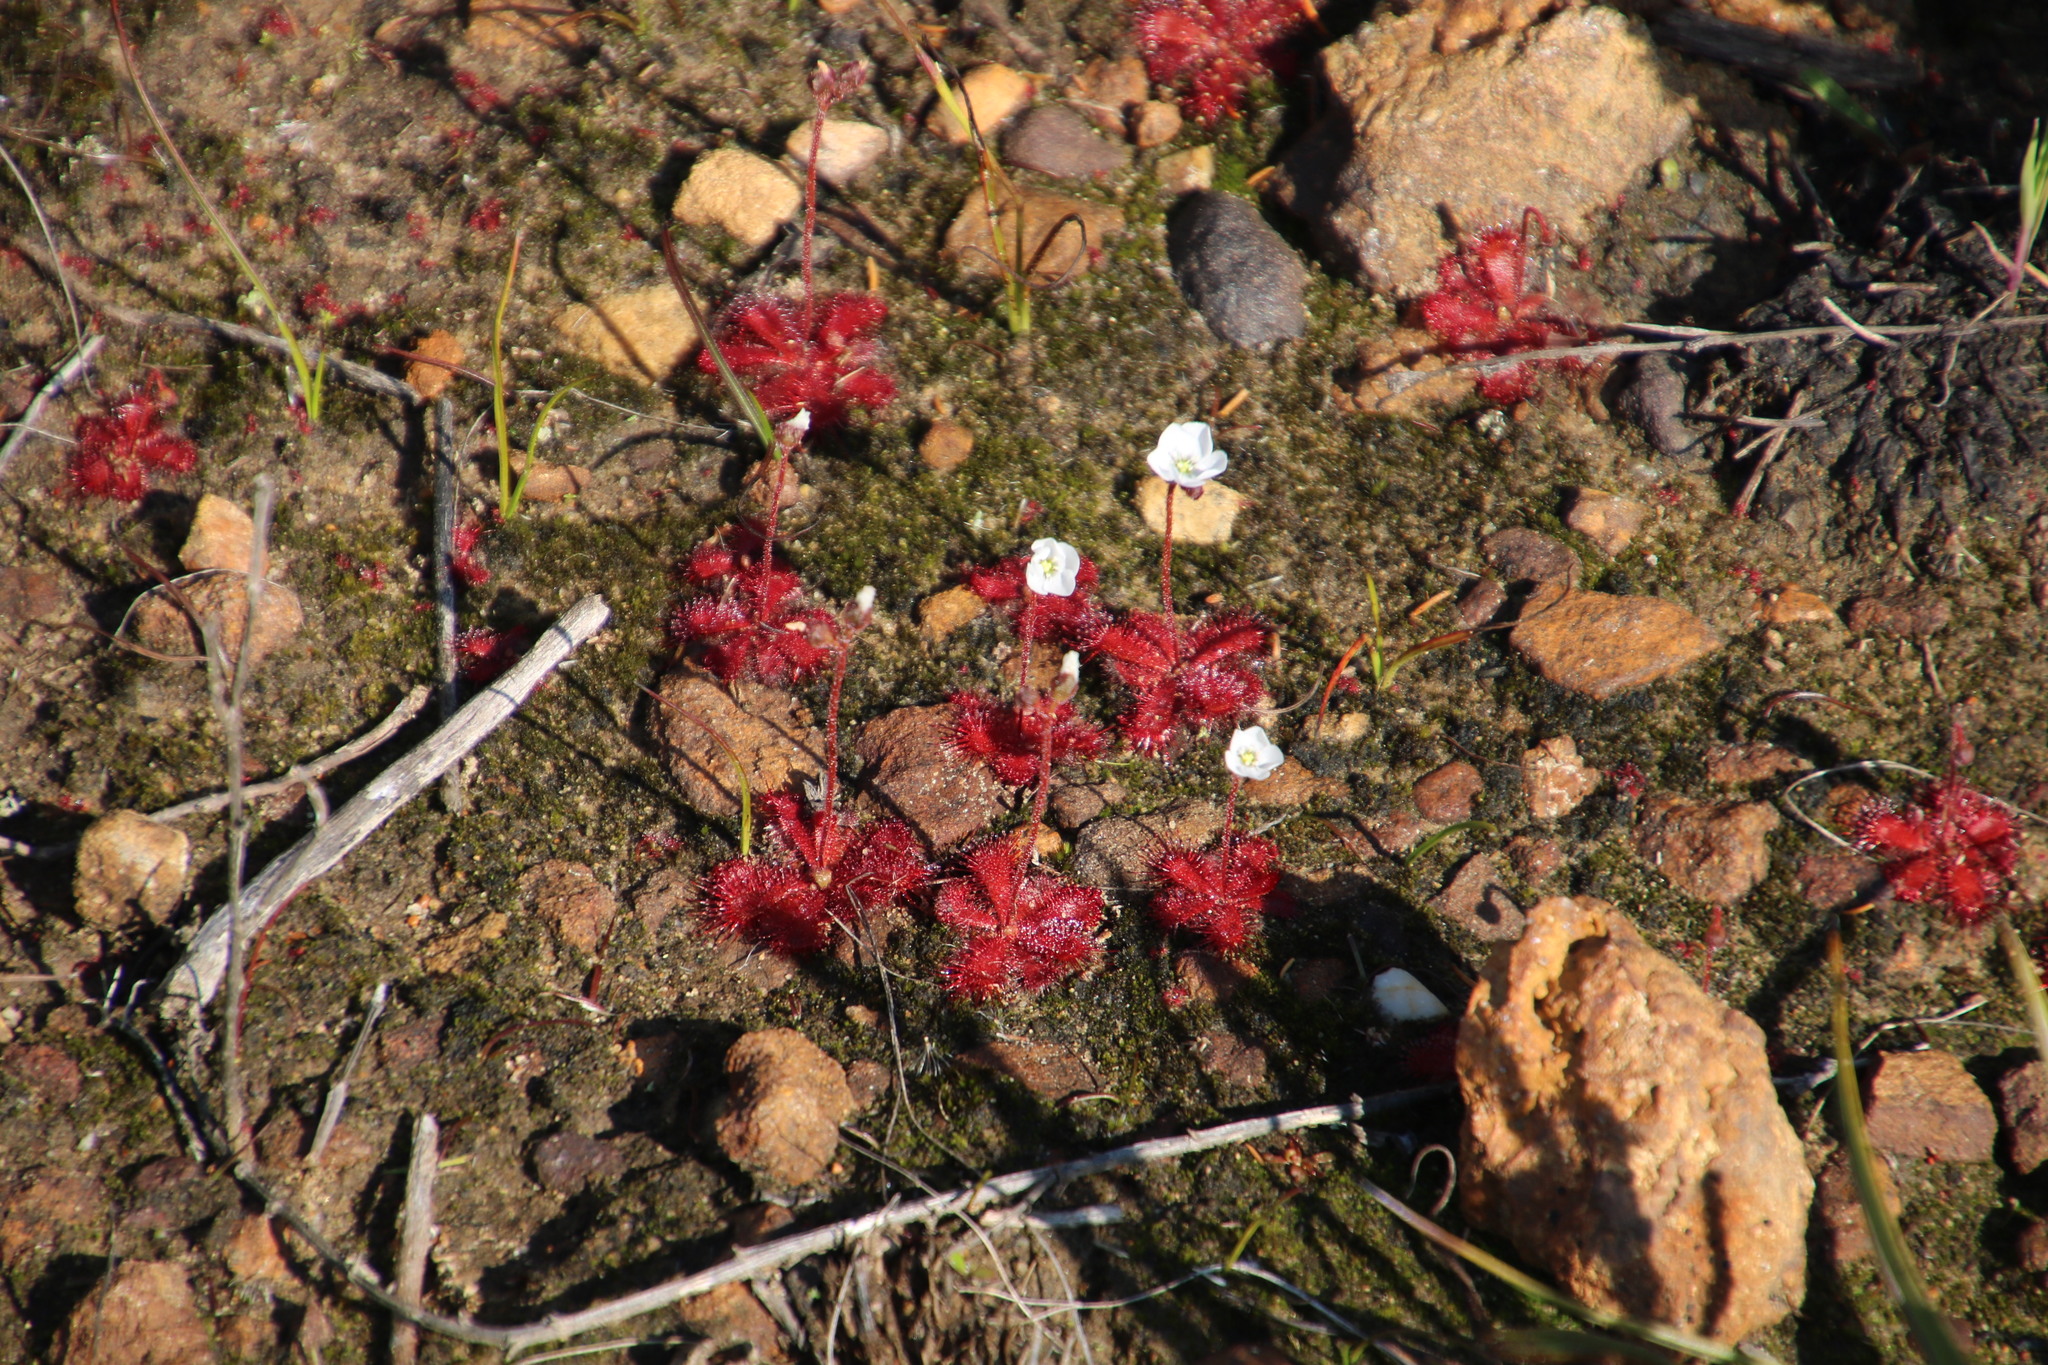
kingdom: Plantae
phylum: Tracheophyta
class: Magnoliopsida
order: Caryophyllales
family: Droseraceae
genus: Drosera
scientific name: Drosera trinervia
